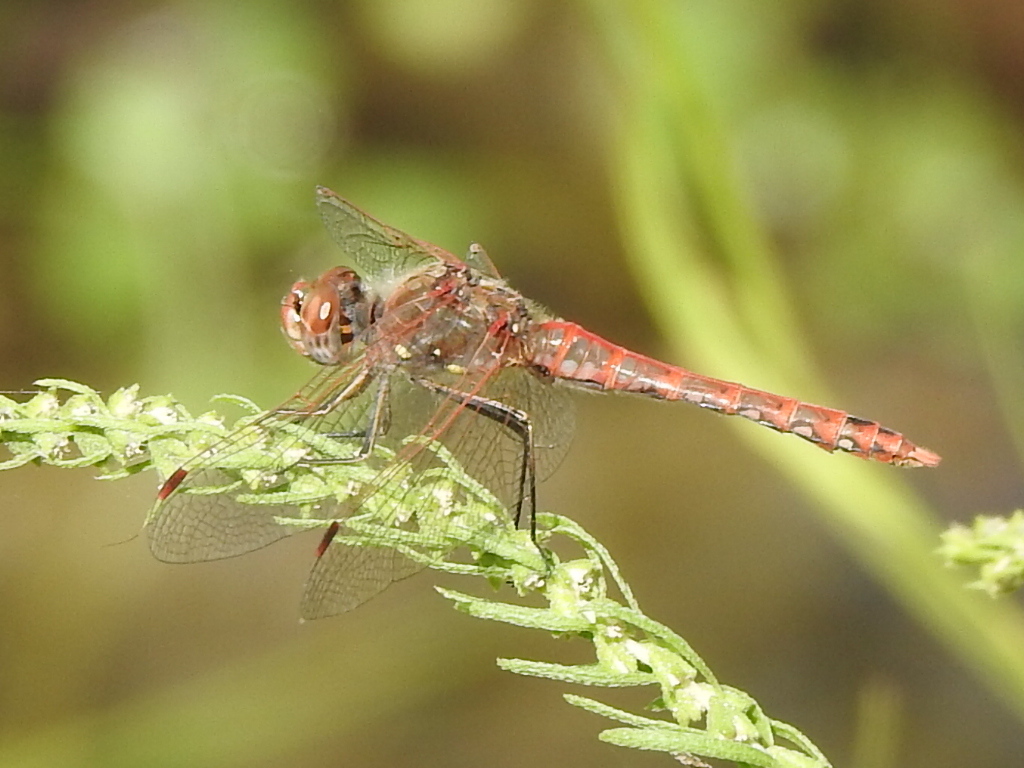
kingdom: Animalia
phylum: Arthropoda
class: Insecta
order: Odonata
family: Libellulidae
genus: Sympetrum
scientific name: Sympetrum corruptum
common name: Variegated meadowhawk
